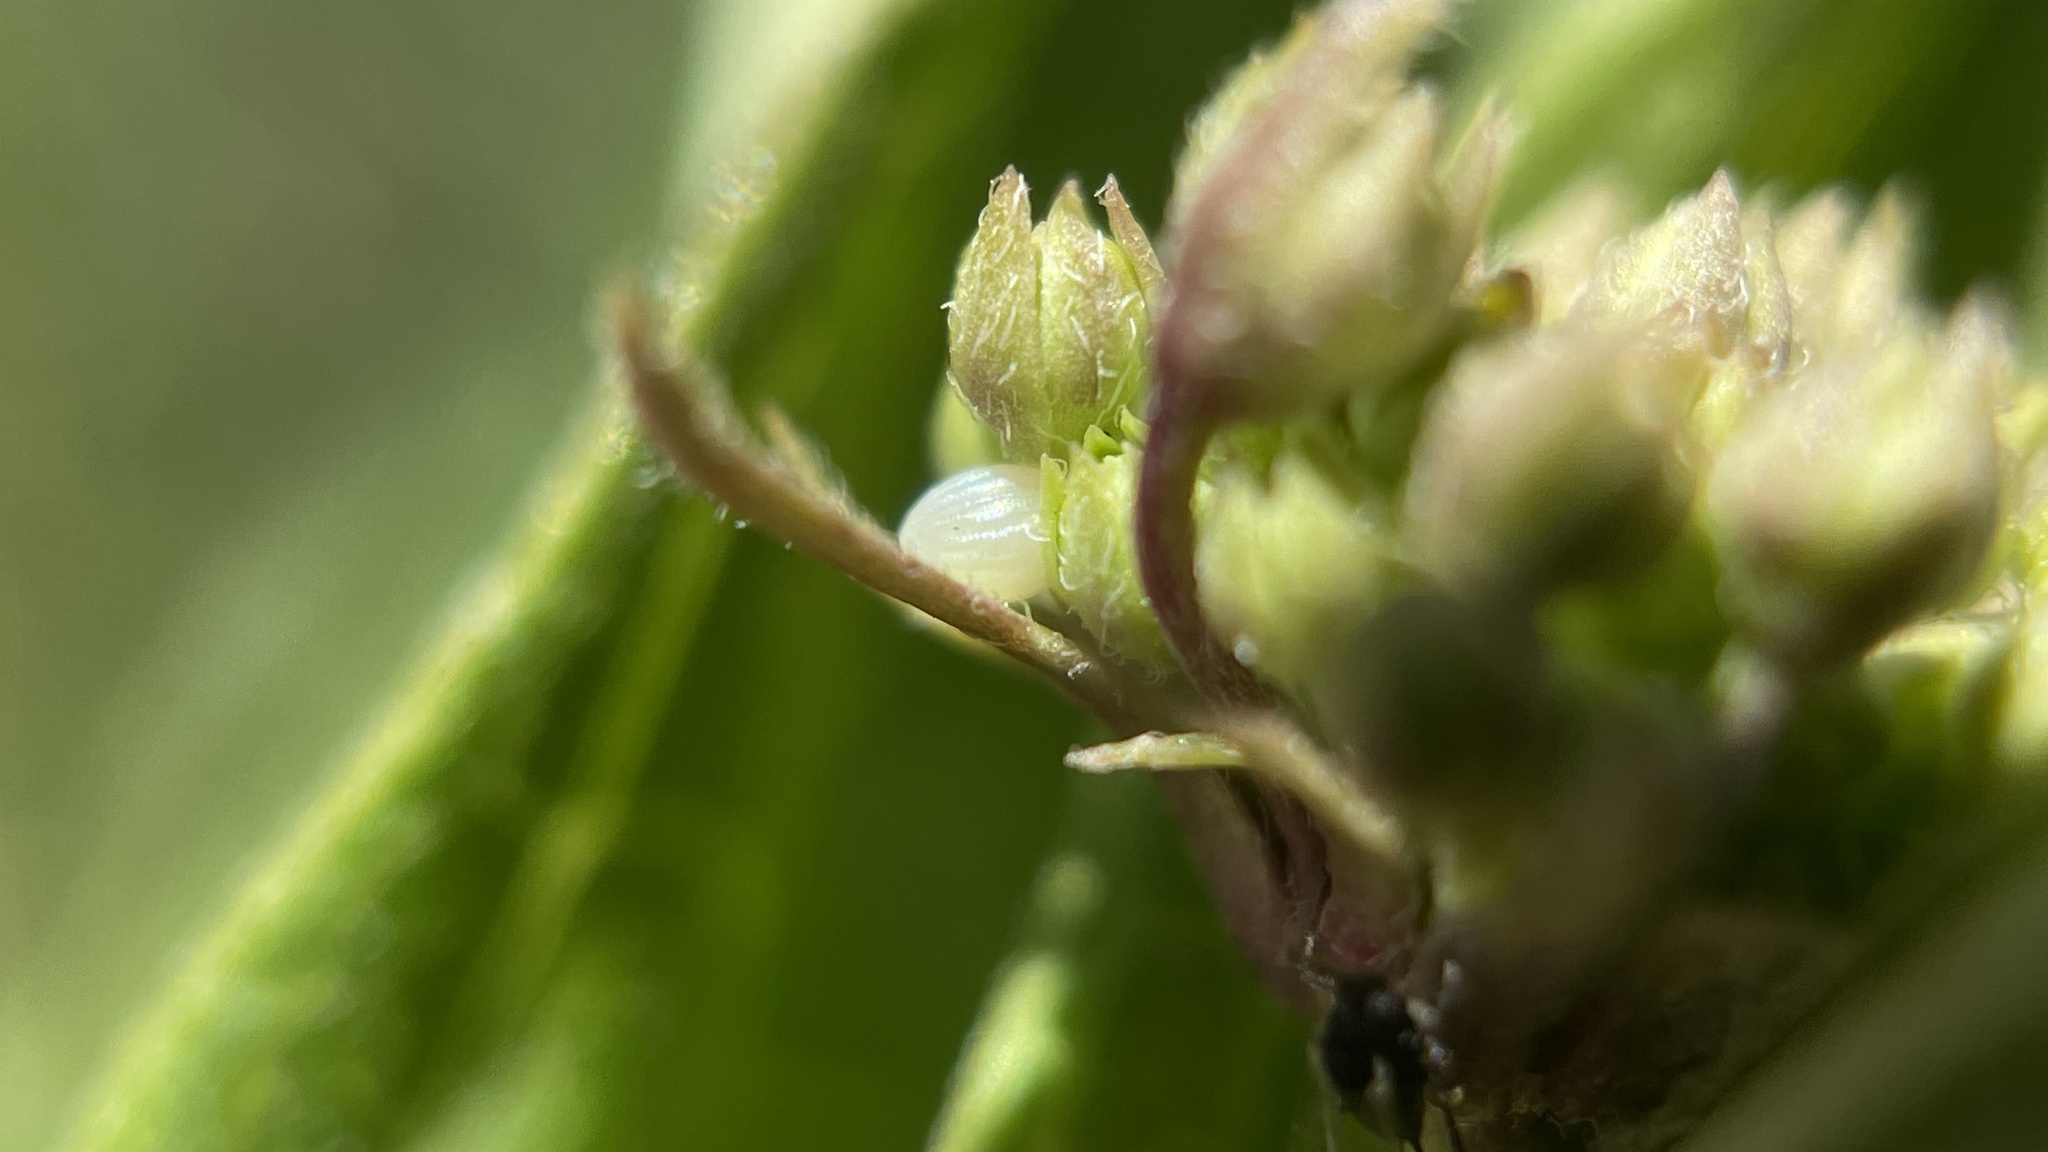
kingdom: Animalia
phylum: Arthropoda
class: Insecta
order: Lepidoptera
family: Nymphalidae
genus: Danaus
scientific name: Danaus plexippus
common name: Monarch
